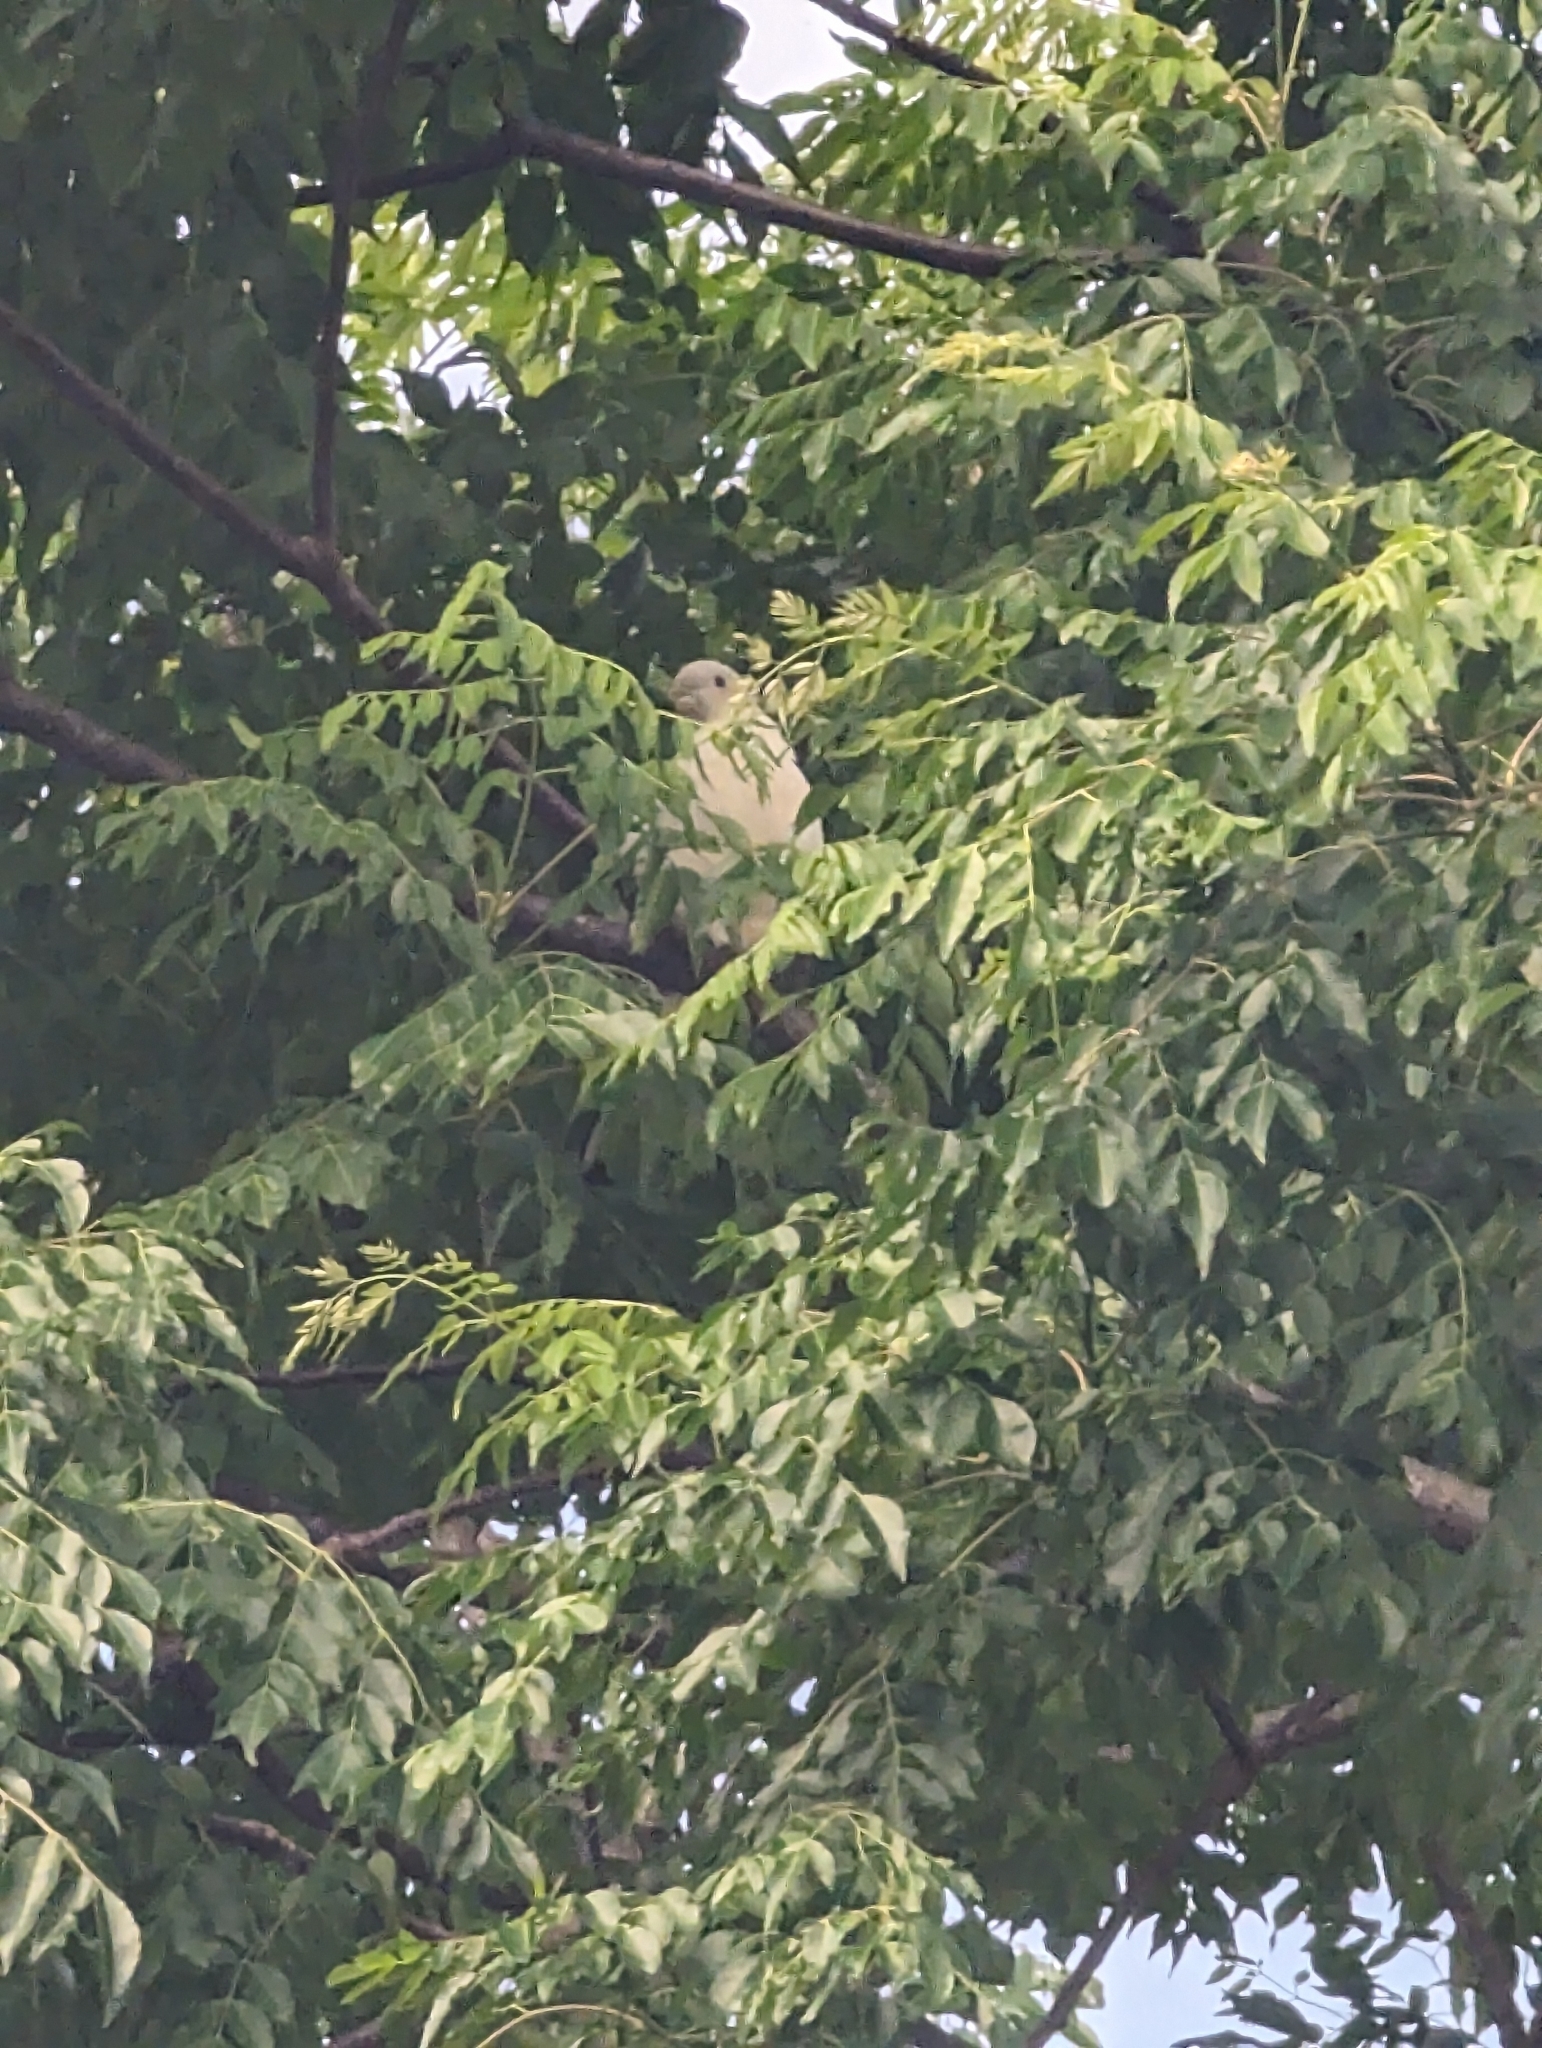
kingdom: Animalia
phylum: Chordata
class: Aves
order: Columbiformes
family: Columbidae
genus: Ducula
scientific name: Ducula spilorrhoa
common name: Torresian imperial pigeon
